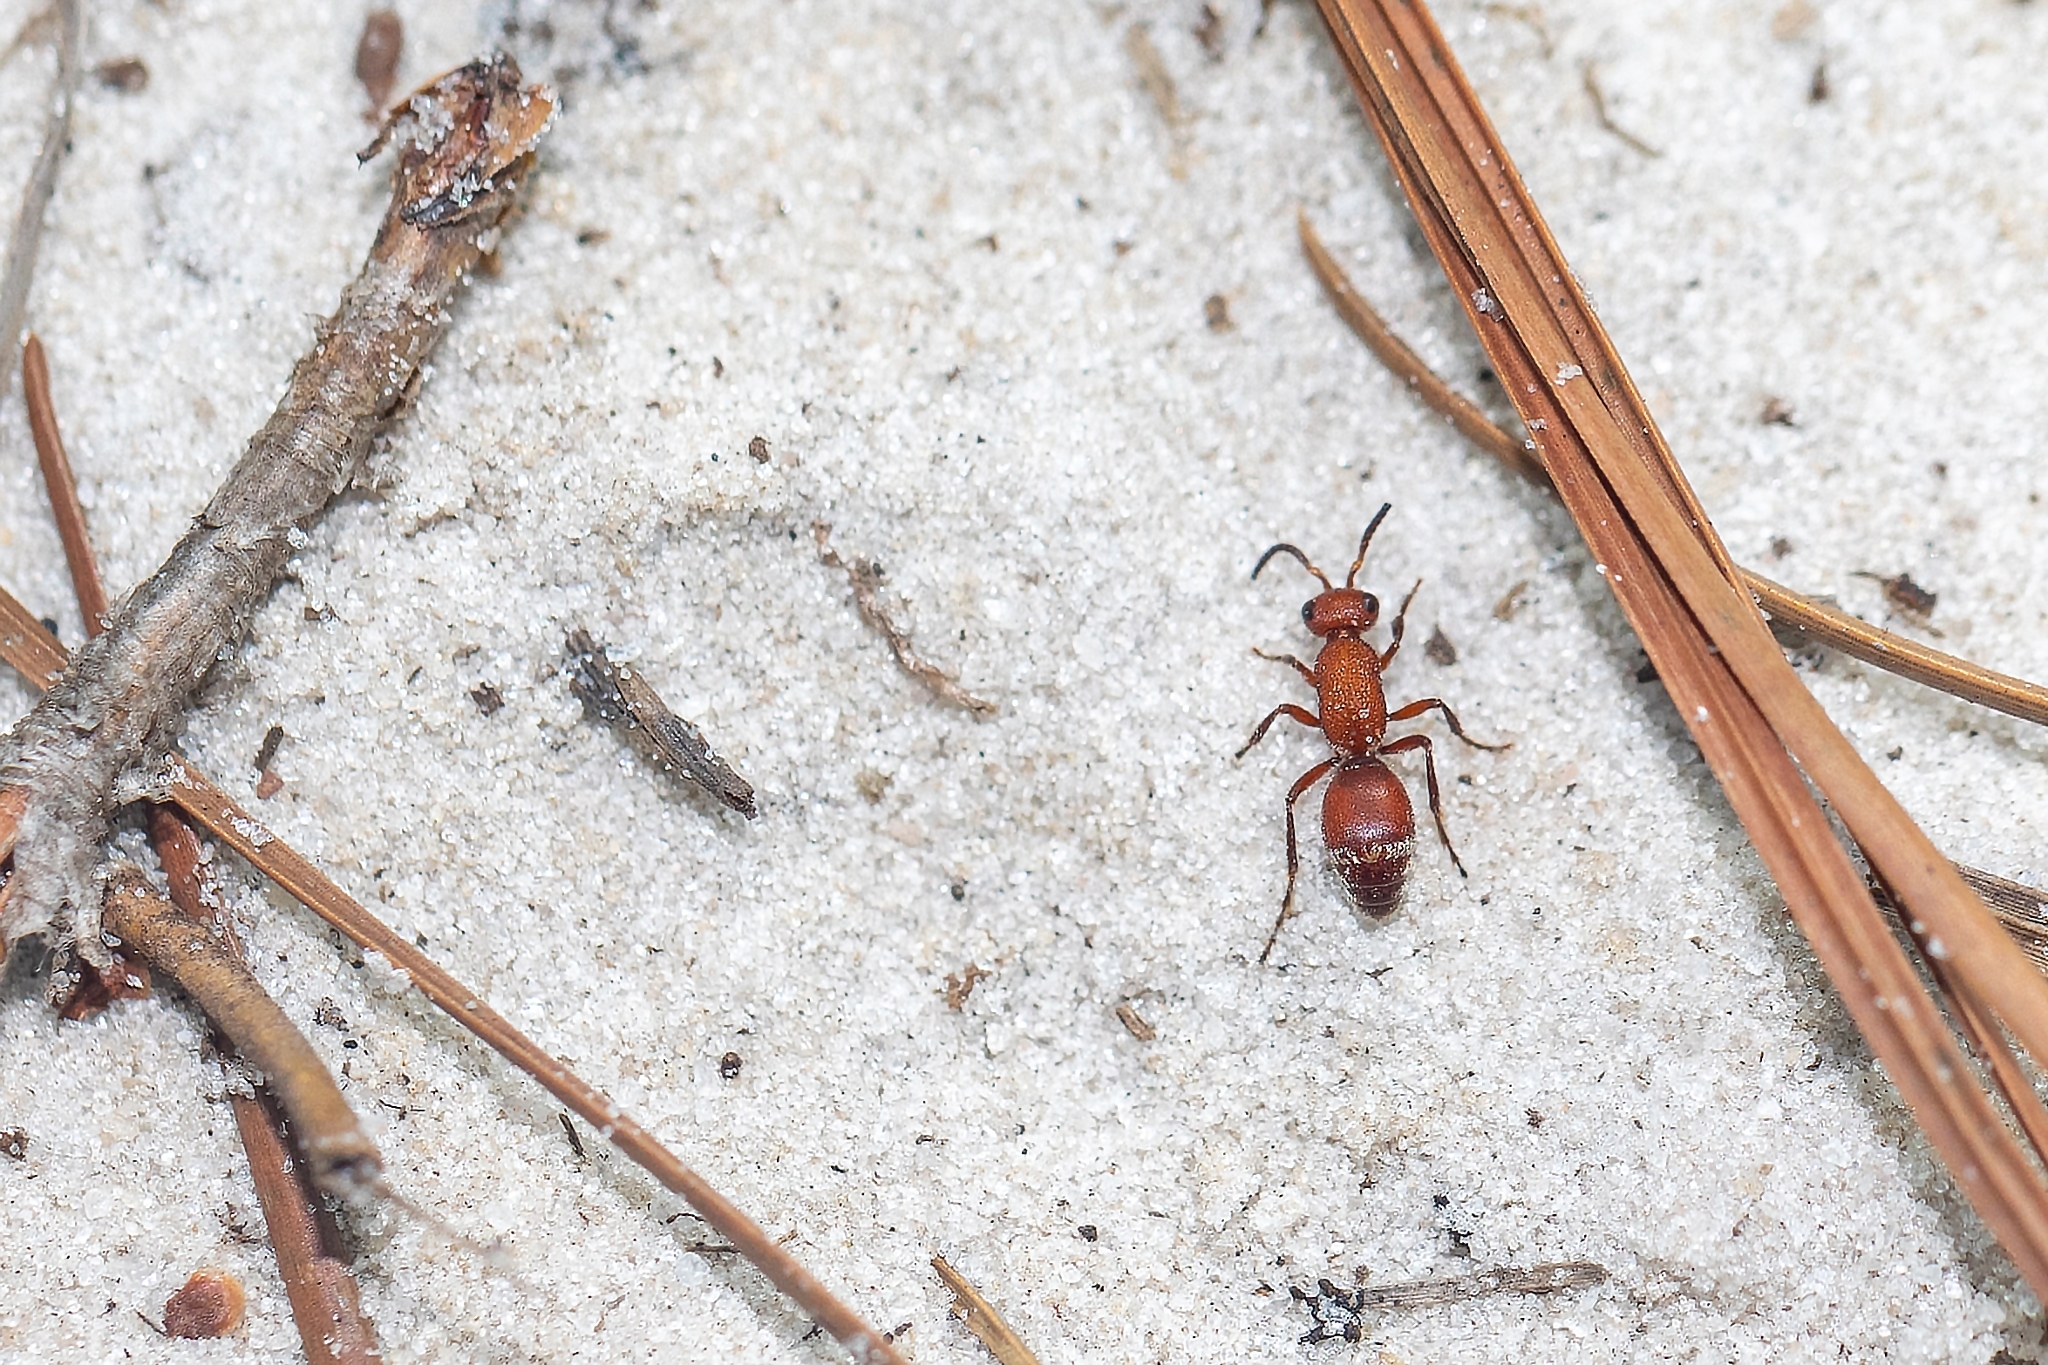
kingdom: Animalia
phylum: Arthropoda
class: Insecta
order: Hymenoptera
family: Mutillidae
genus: Timulla
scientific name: Timulla
